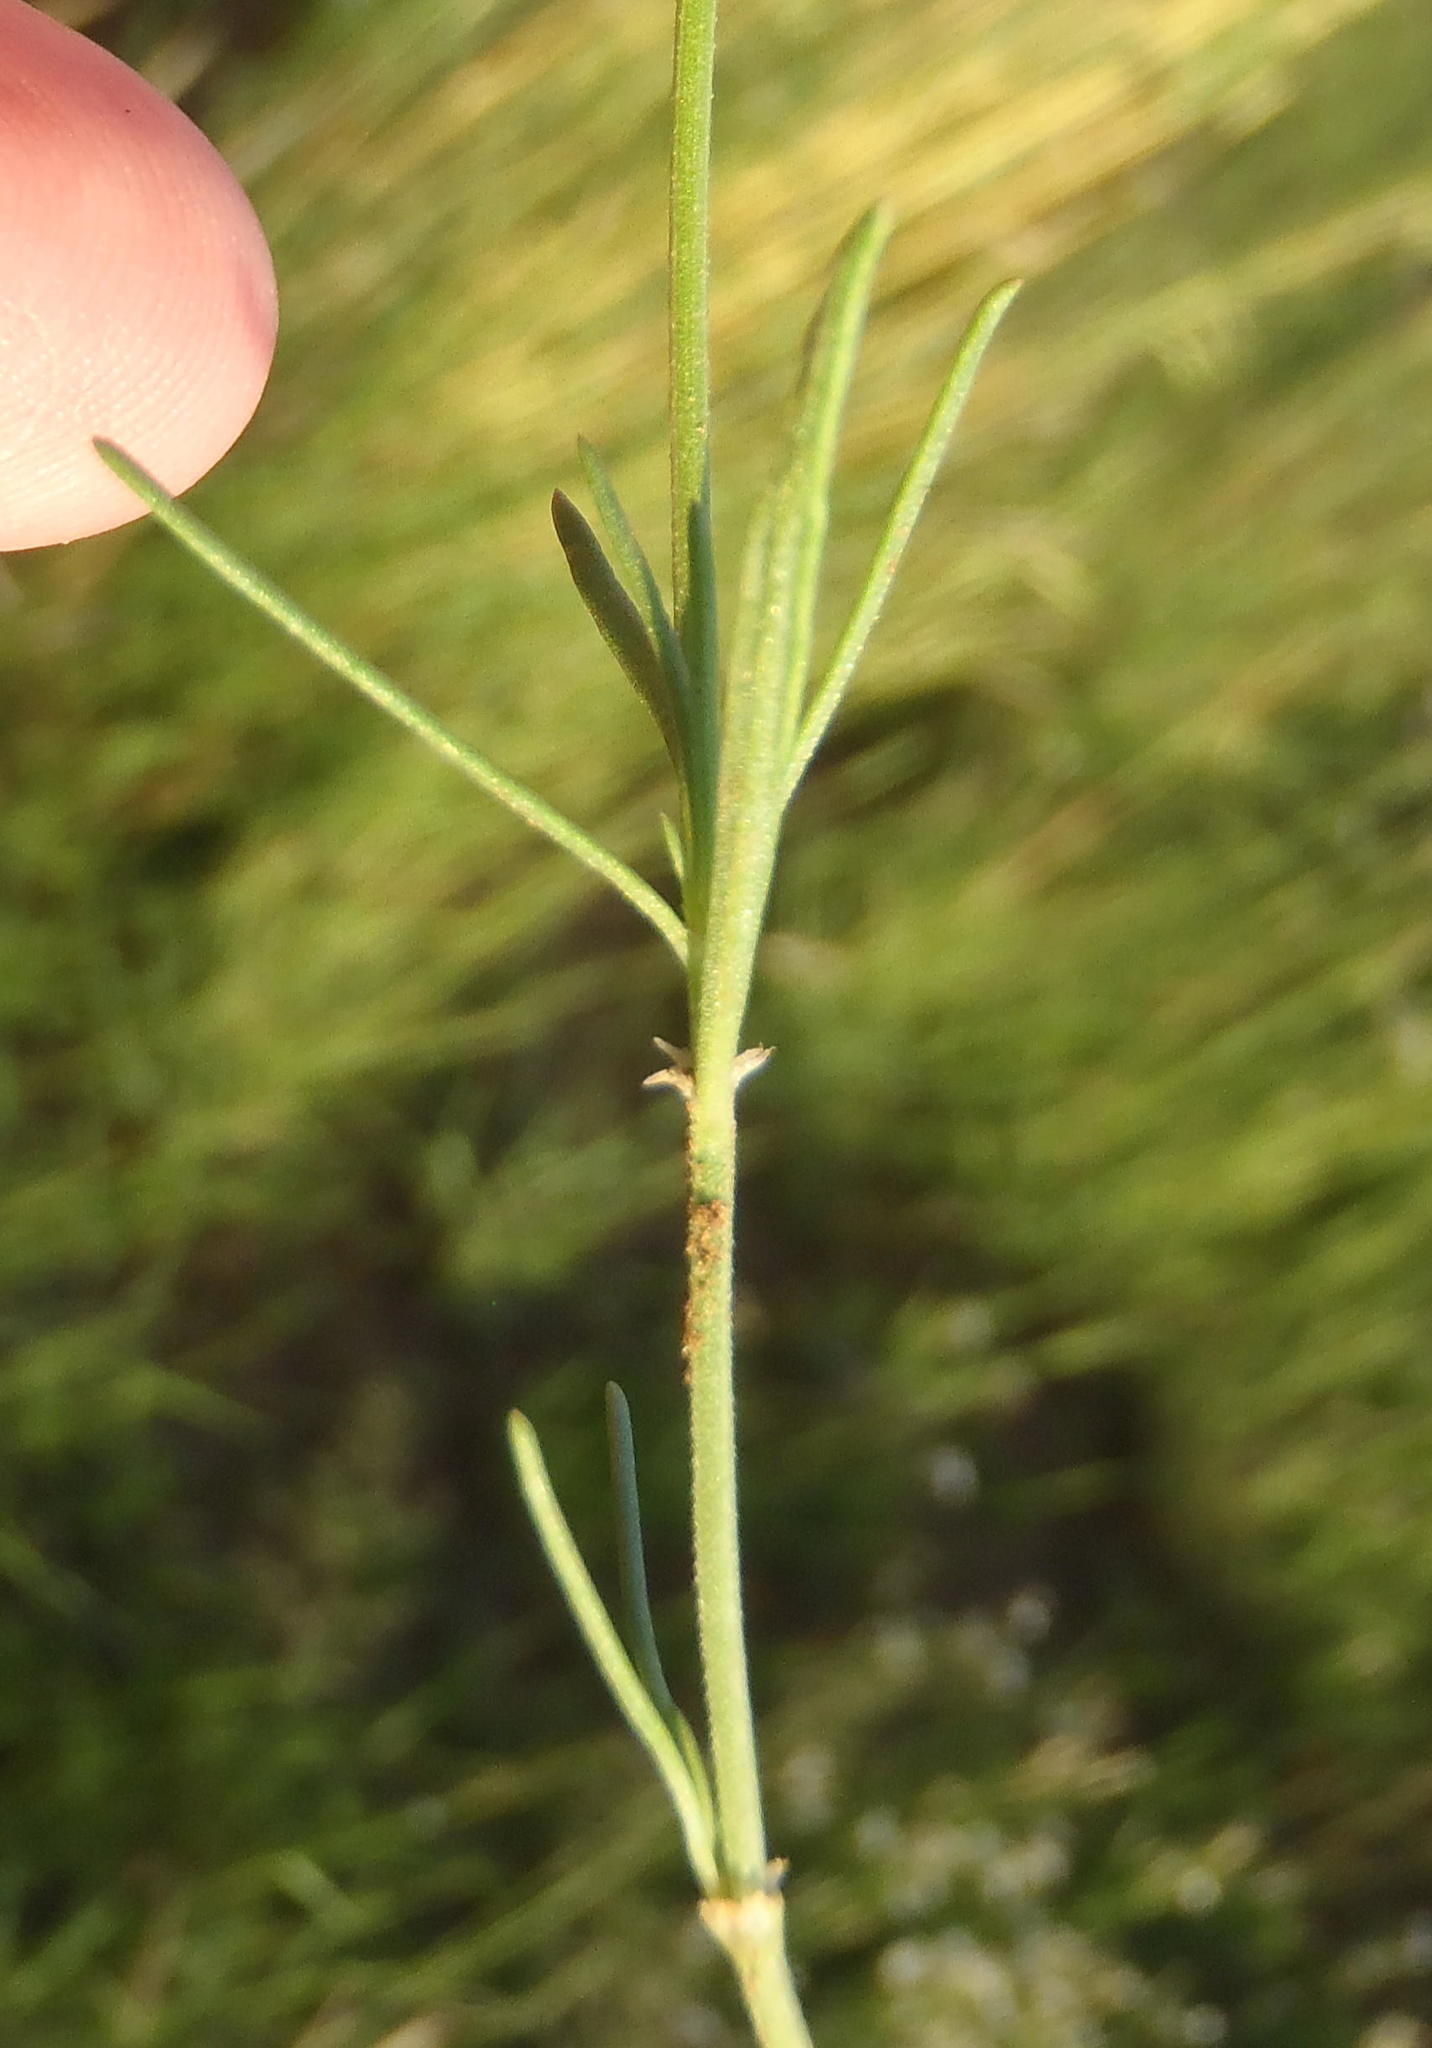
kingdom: Plantae
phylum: Tracheophyta
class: Magnoliopsida
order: Gentianales
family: Rubiaceae
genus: Kohautia
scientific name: Kohautia amatymbica
